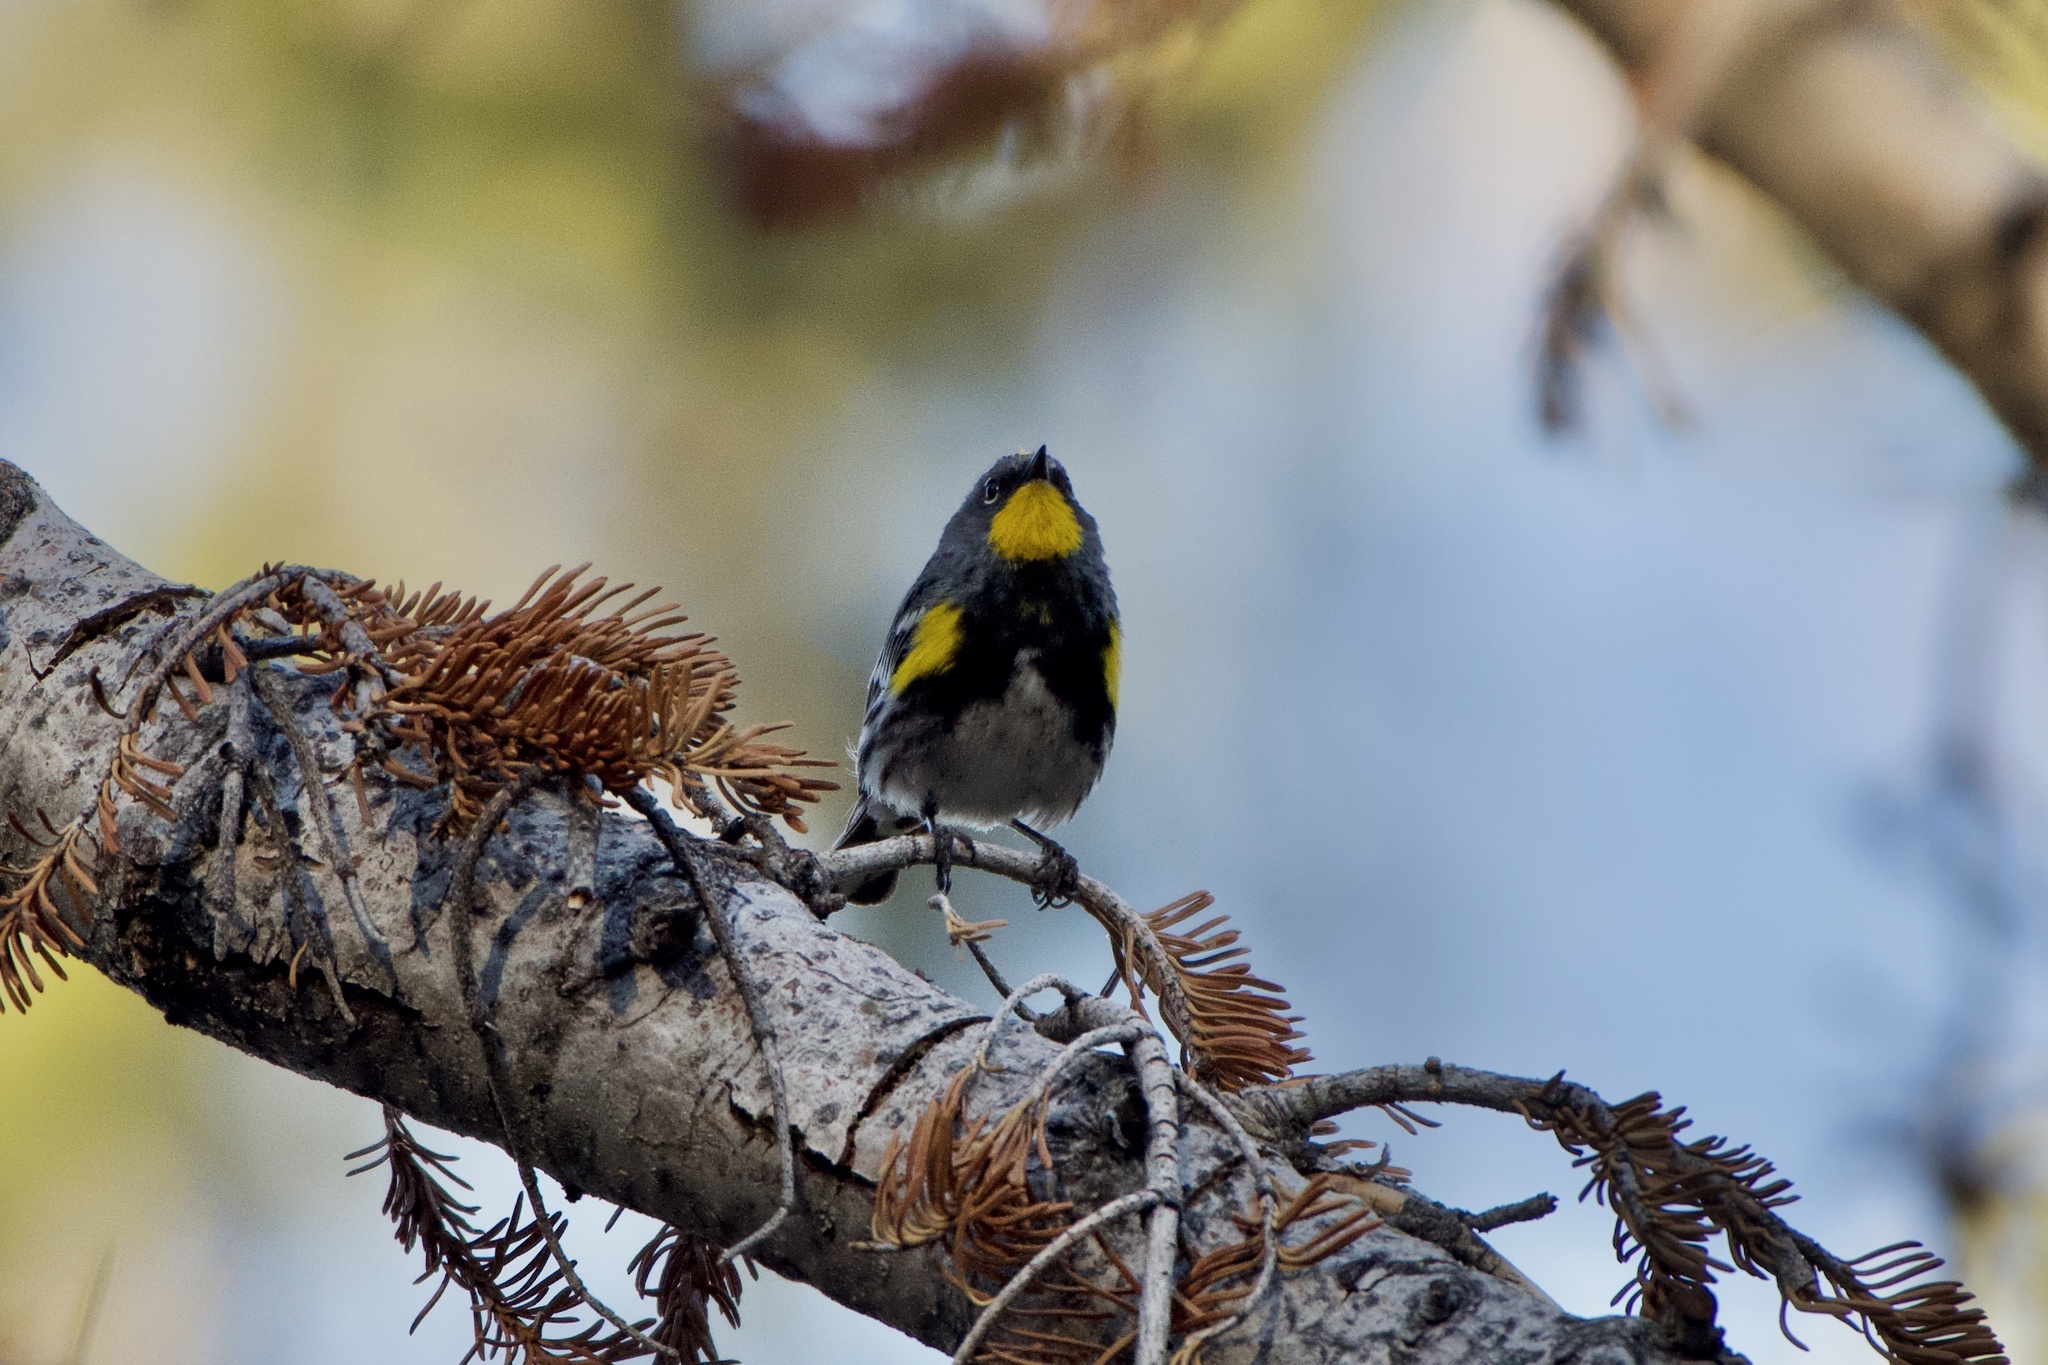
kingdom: Animalia
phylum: Chordata
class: Aves
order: Passeriformes
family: Parulidae
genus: Setophaga
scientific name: Setophaga auduboni
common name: Audubon's warbler
